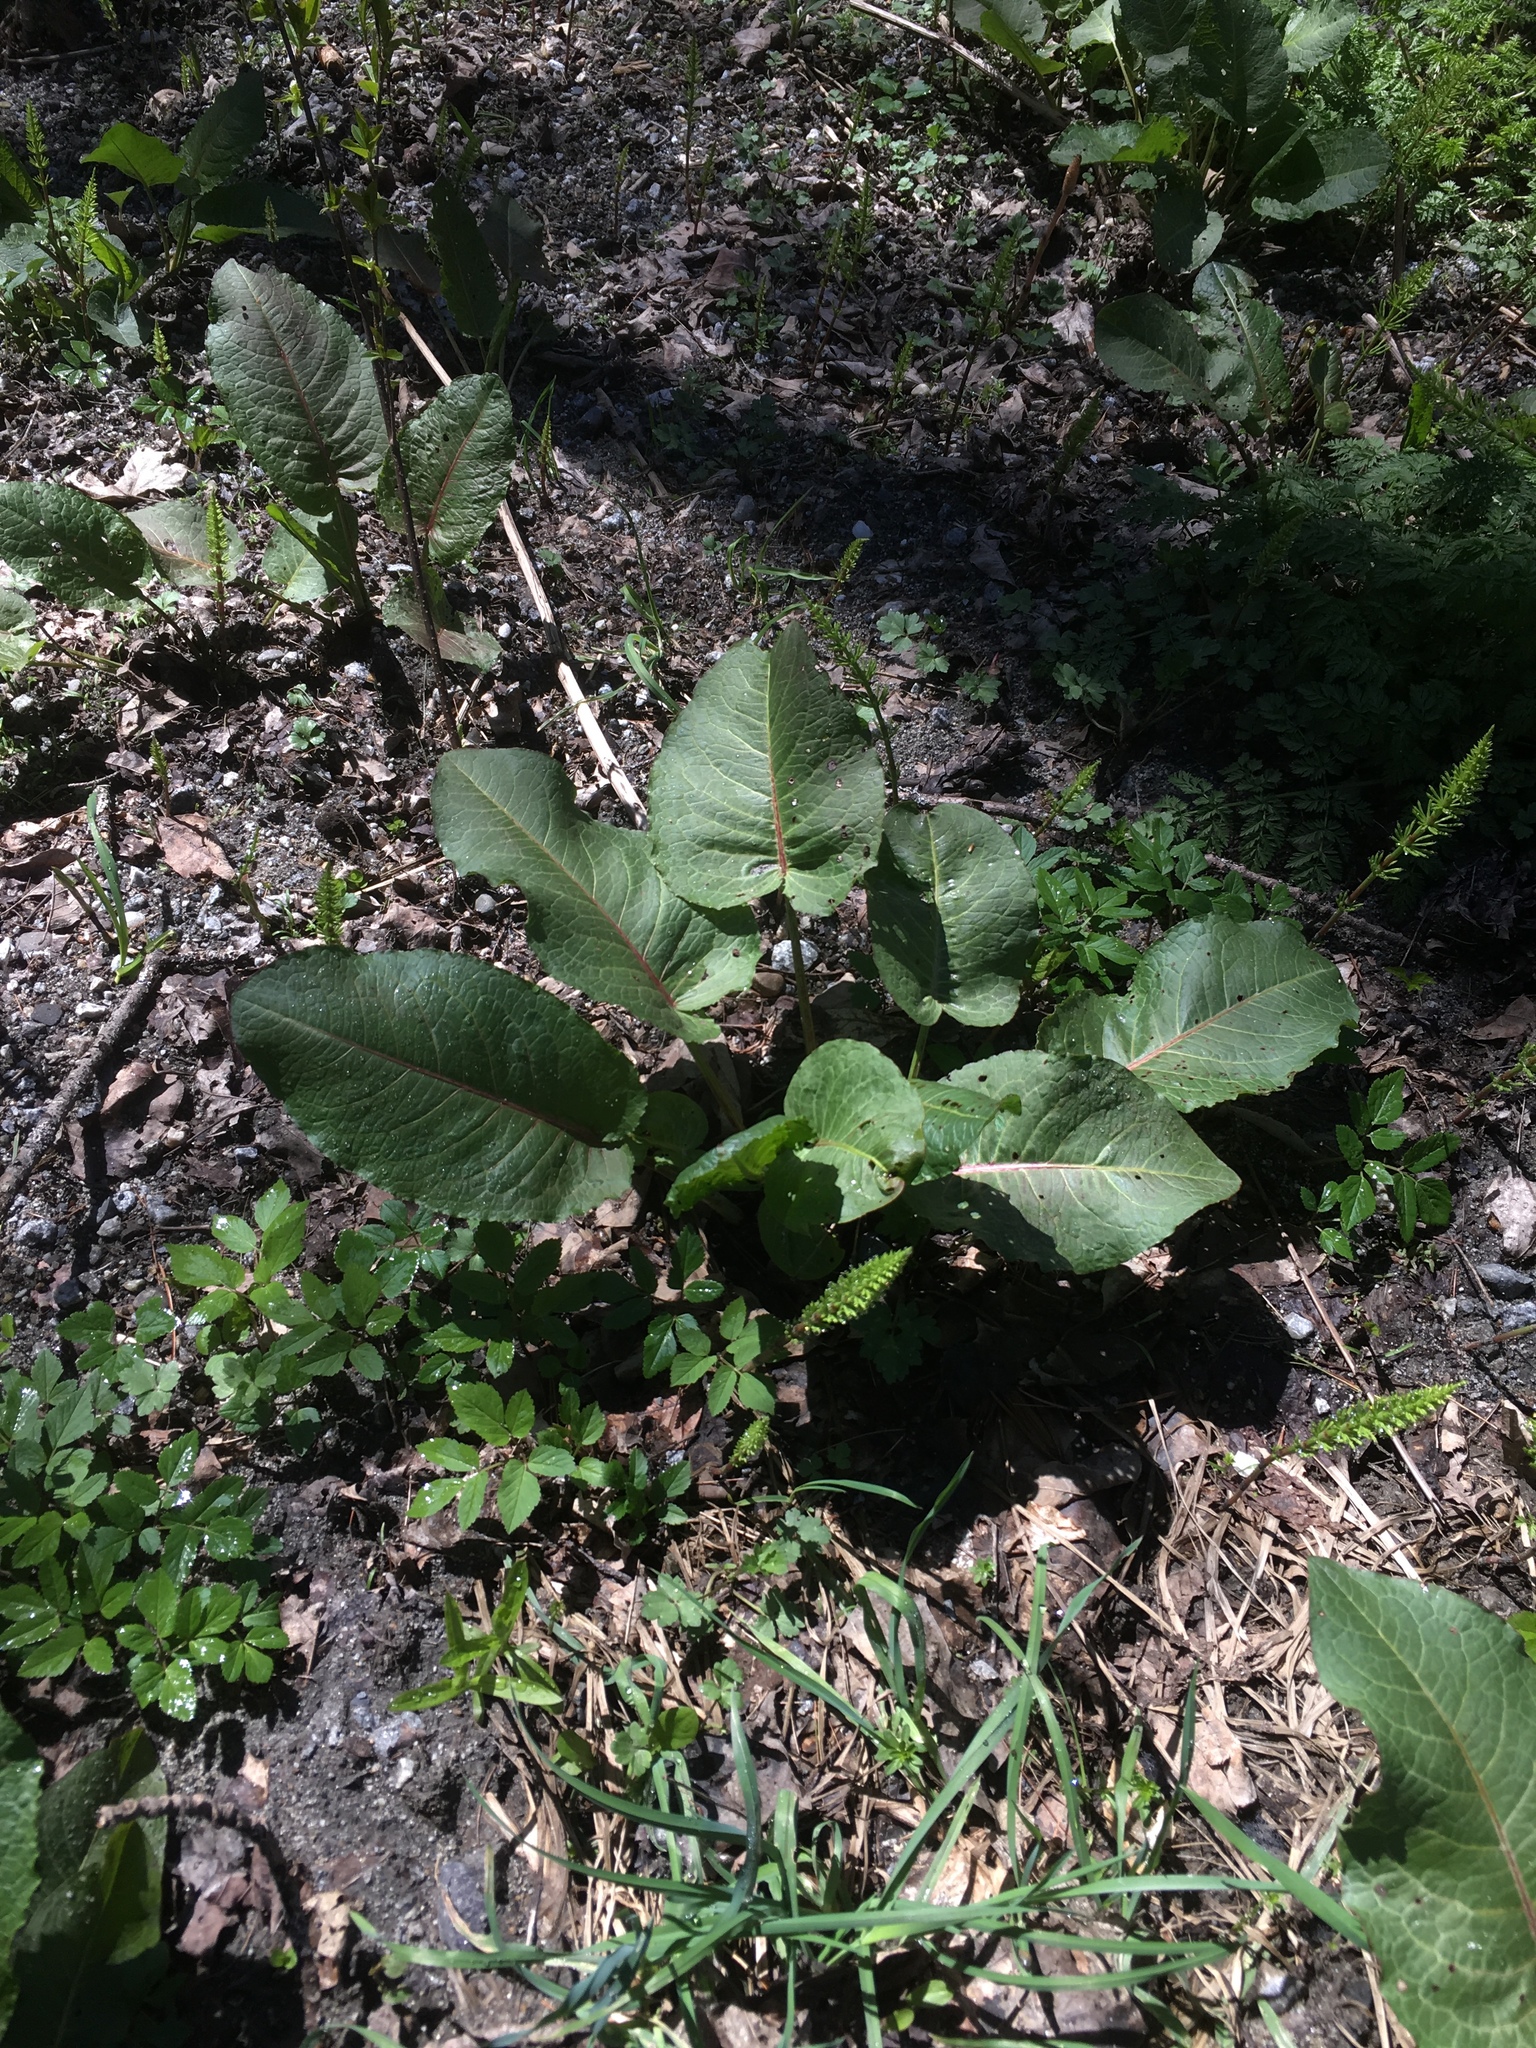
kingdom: Plantae
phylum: Tracheophyta
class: Magnoliopsida
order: Caryophyllales
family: Polygonaceae
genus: Rumex
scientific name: Rumex obtusifolius
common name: Bitter dock
